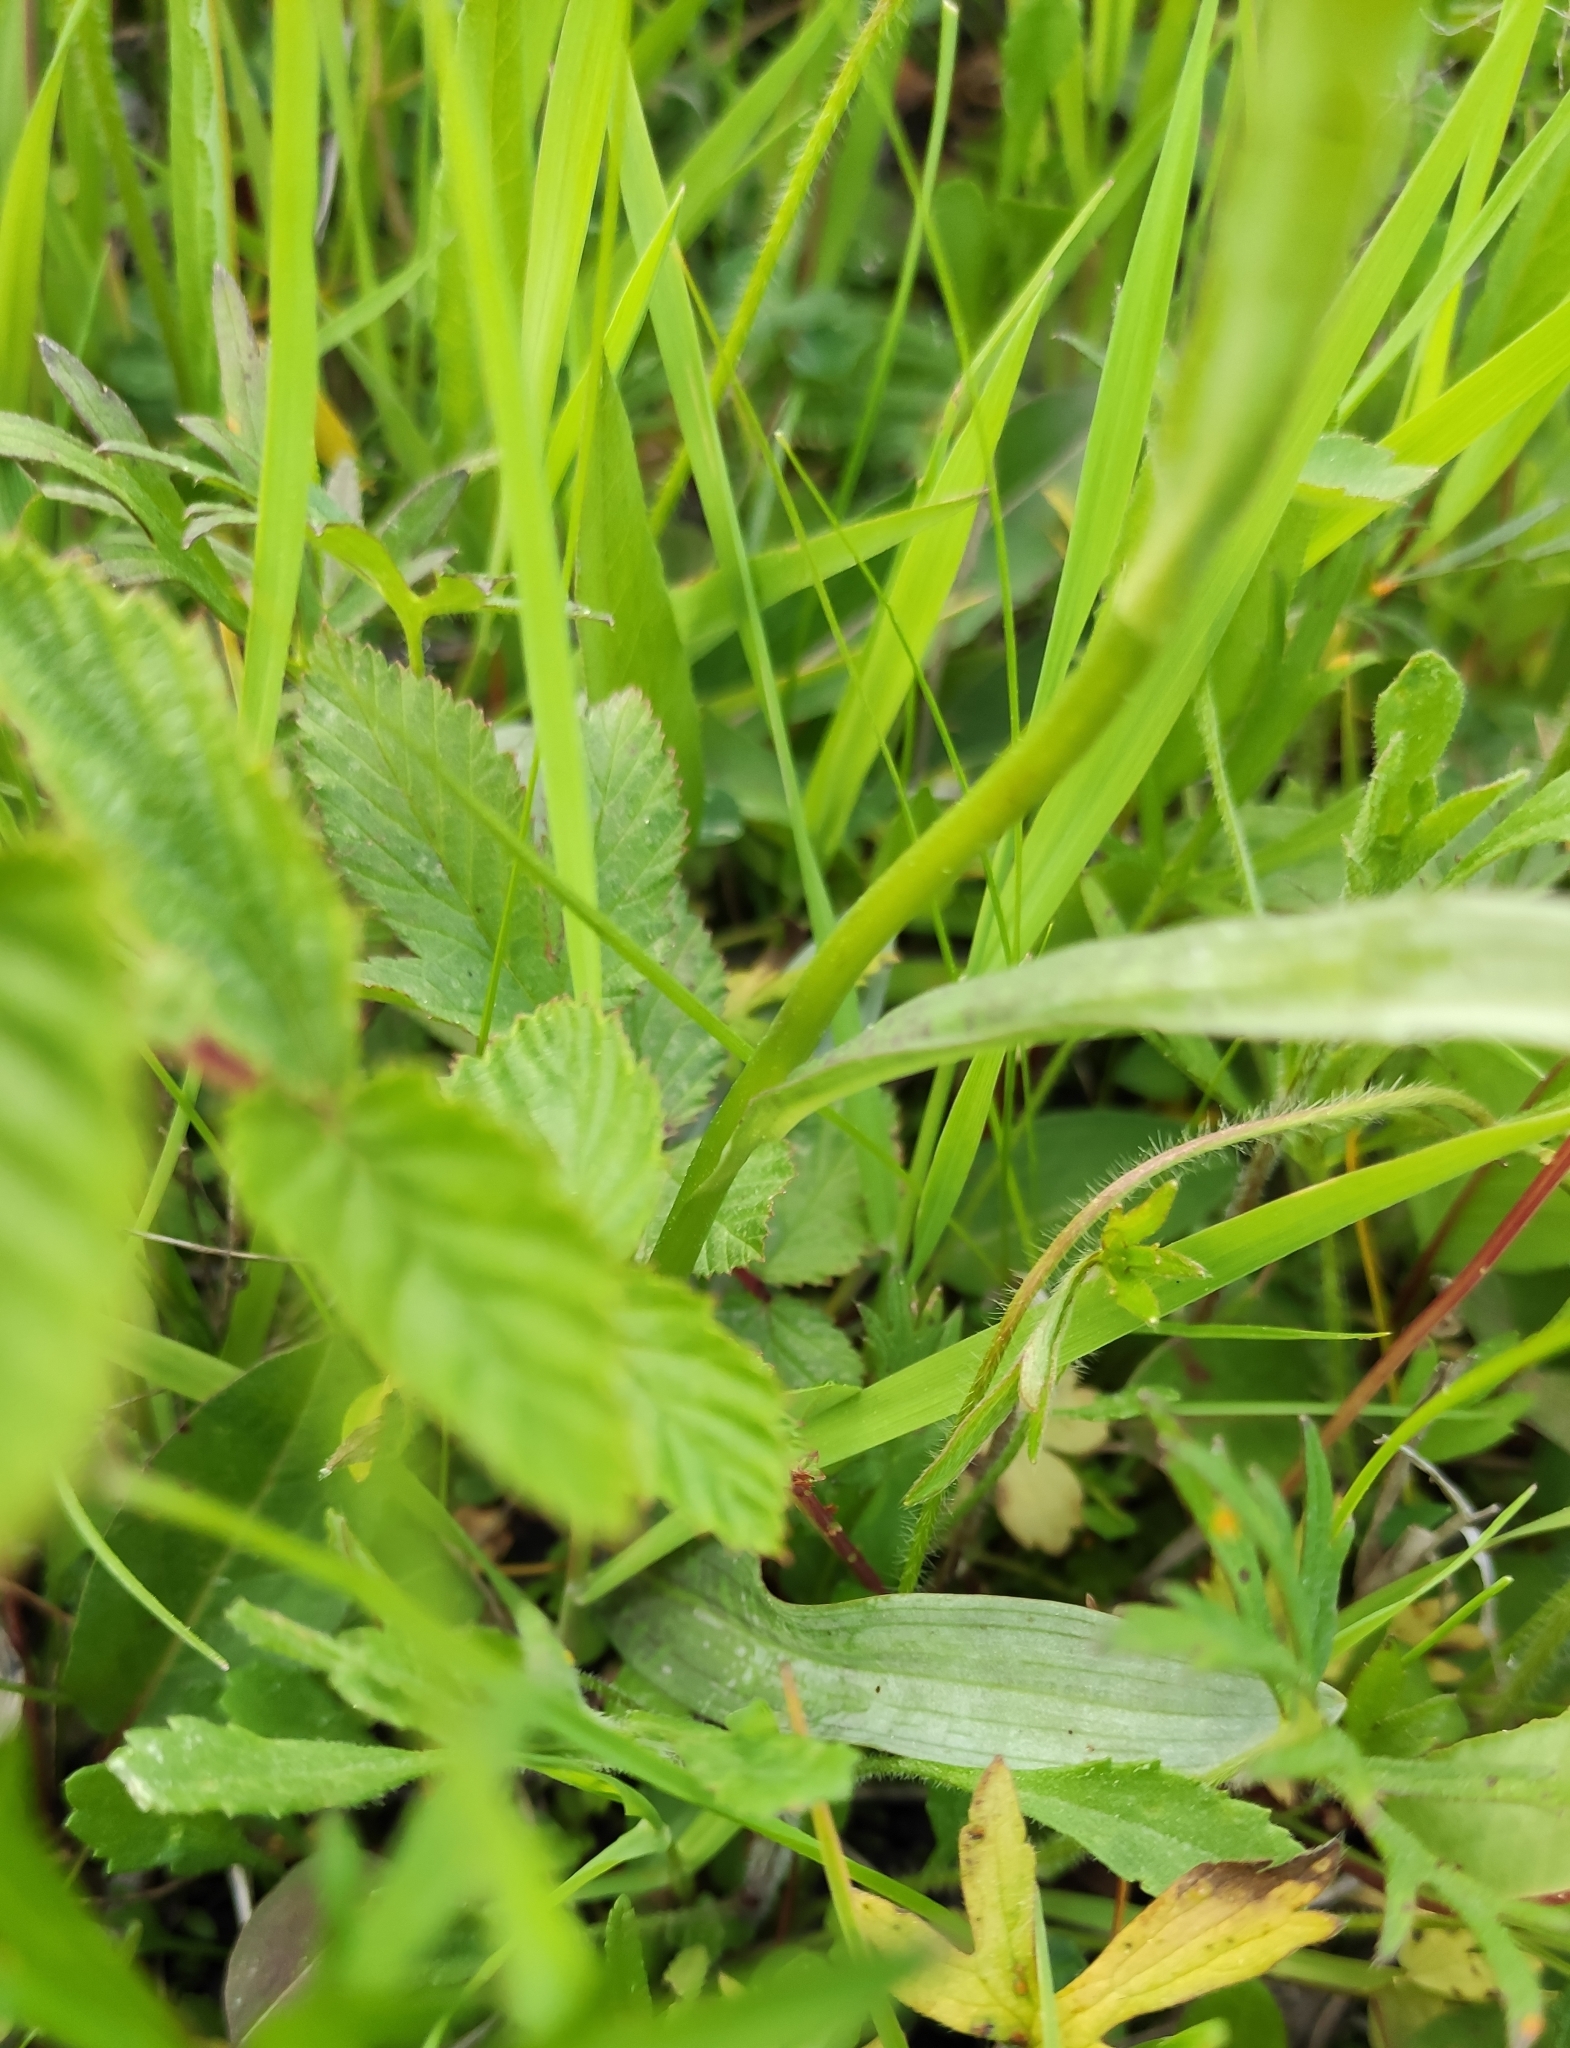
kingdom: Plantae
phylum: Tracheophyta
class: Liliopsida
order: Asparagales
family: Orchidaceae
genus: Dactylorhiza
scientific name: Dactylorhiza maculata
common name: Heath spotted-orchid
